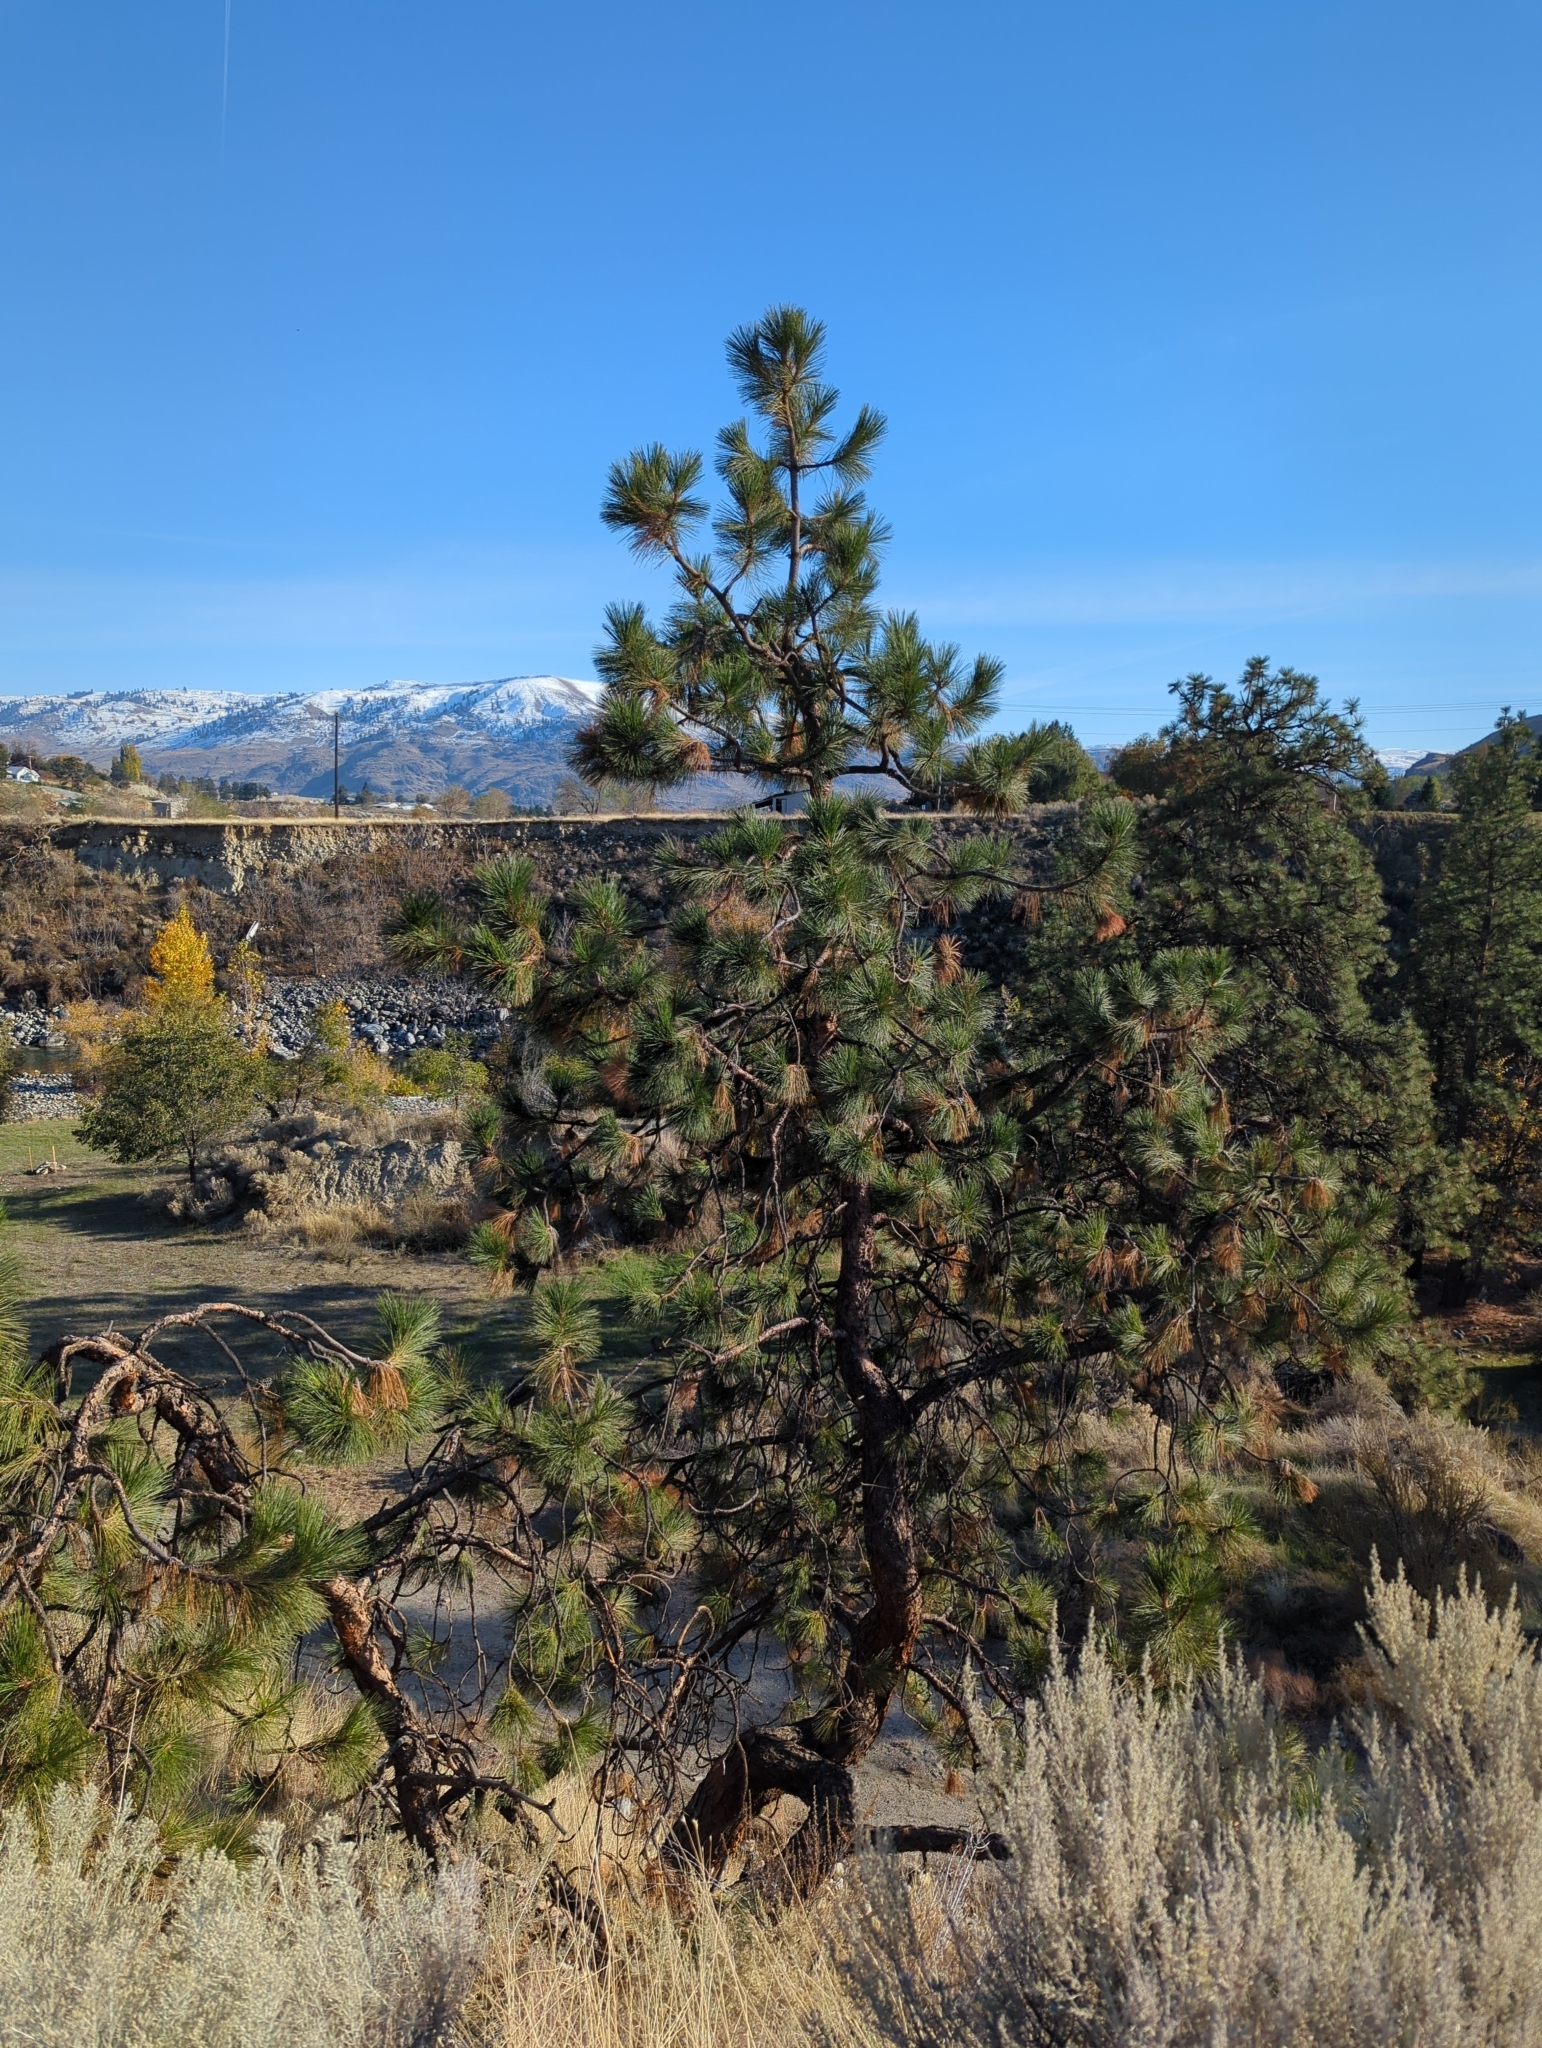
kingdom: Plantae
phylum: Tracheophyta
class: Pinopsida
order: Pinales
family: Pinaceae
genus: Pinus
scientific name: Pinus ponderosa
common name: Western yellow-pine
